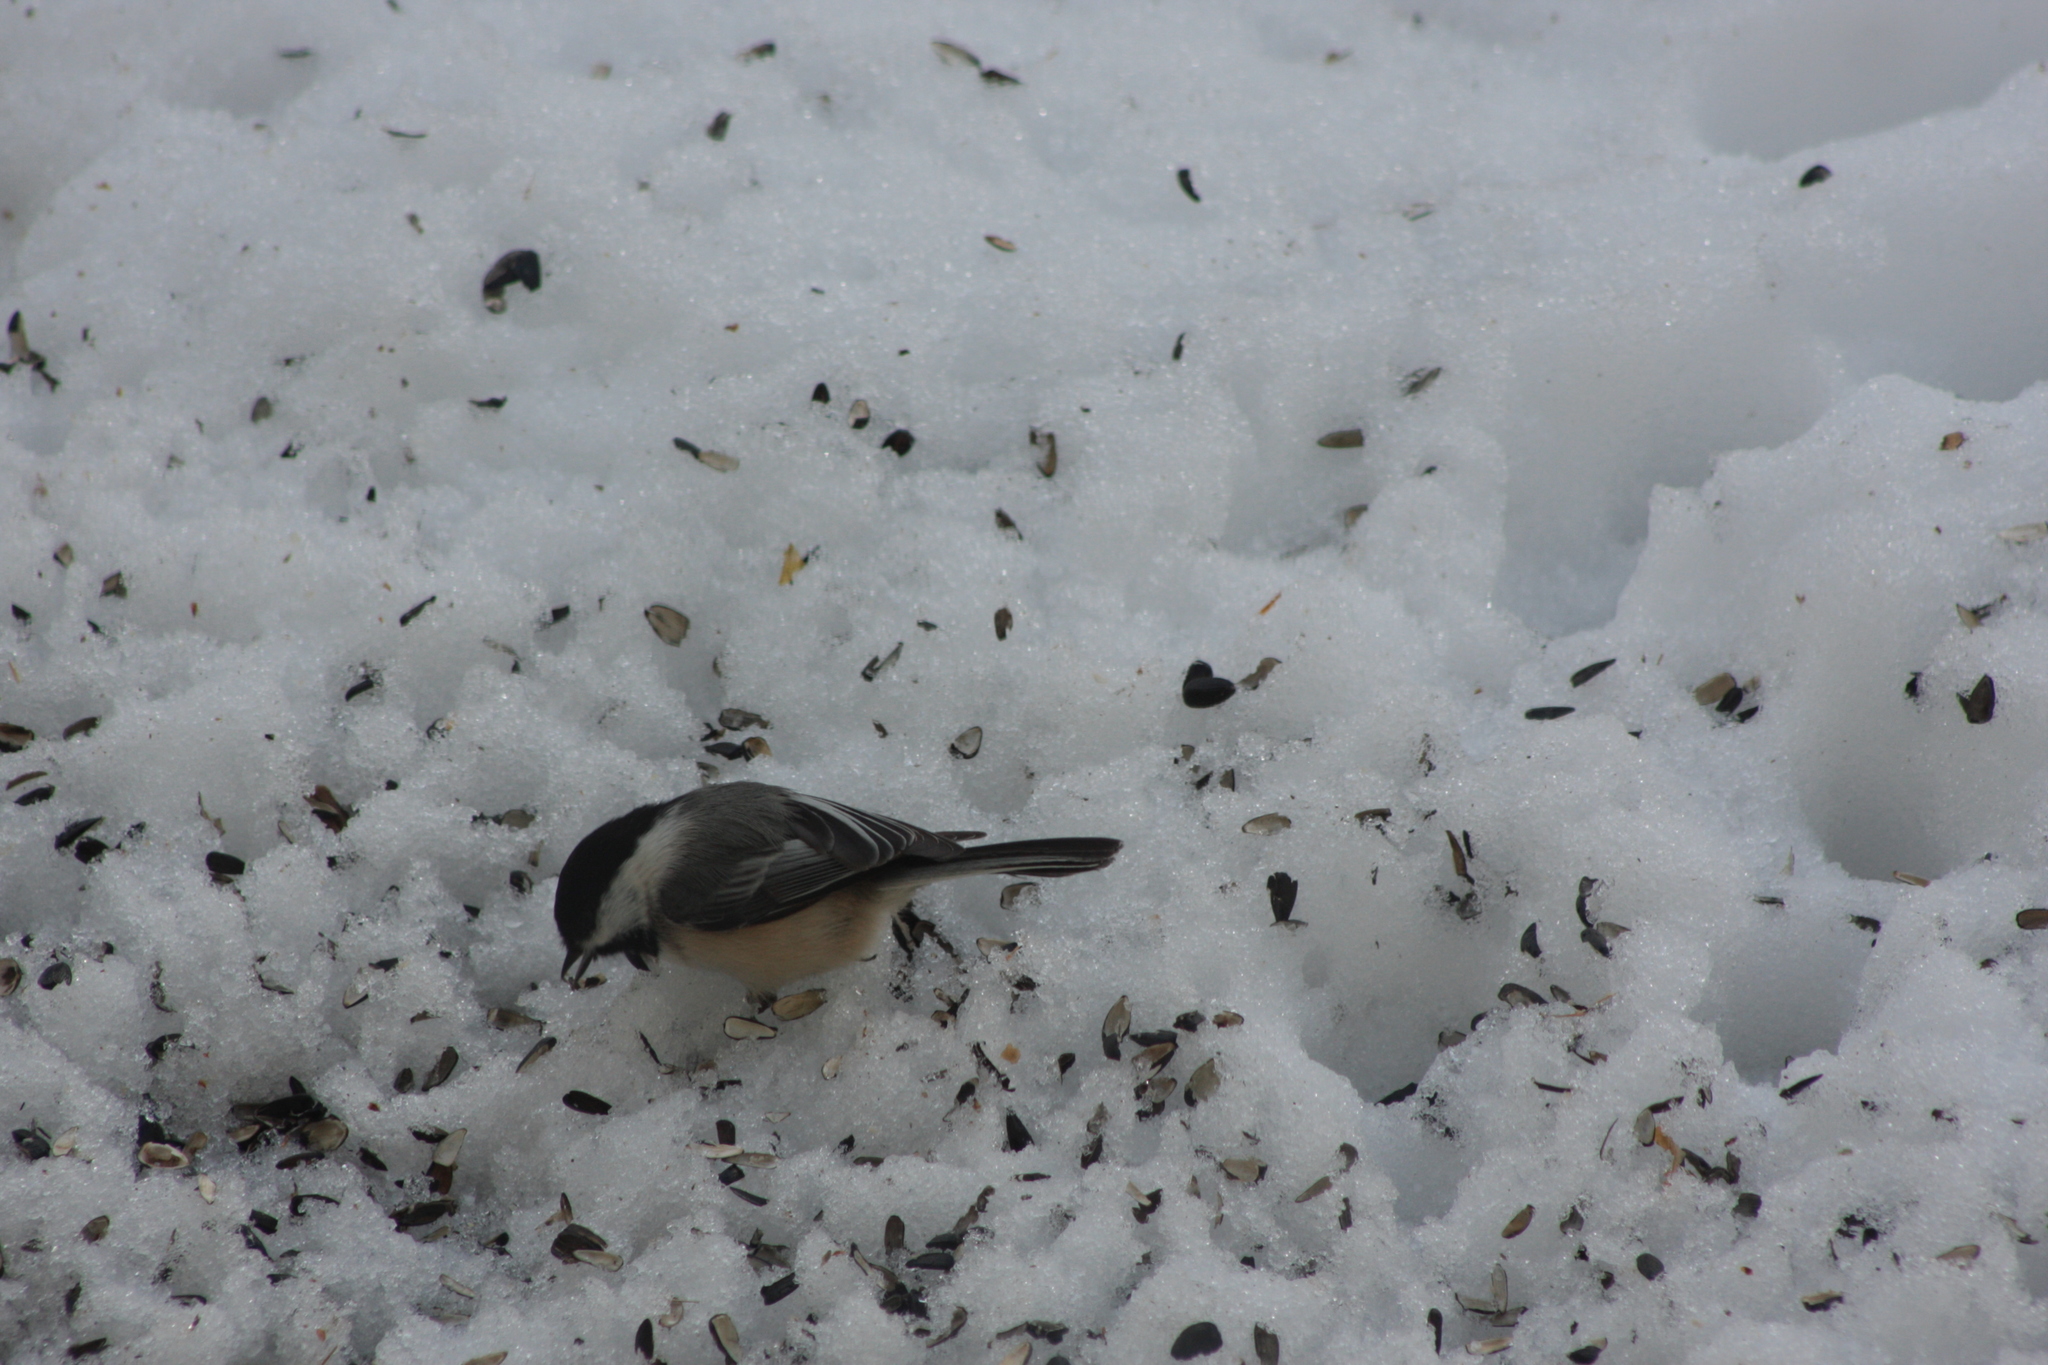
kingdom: Animalia
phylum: Chordata
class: Aves
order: Passeriformes
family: Paridae
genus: Poecile
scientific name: Poecile atricapillus
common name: Black-capped chickadee
